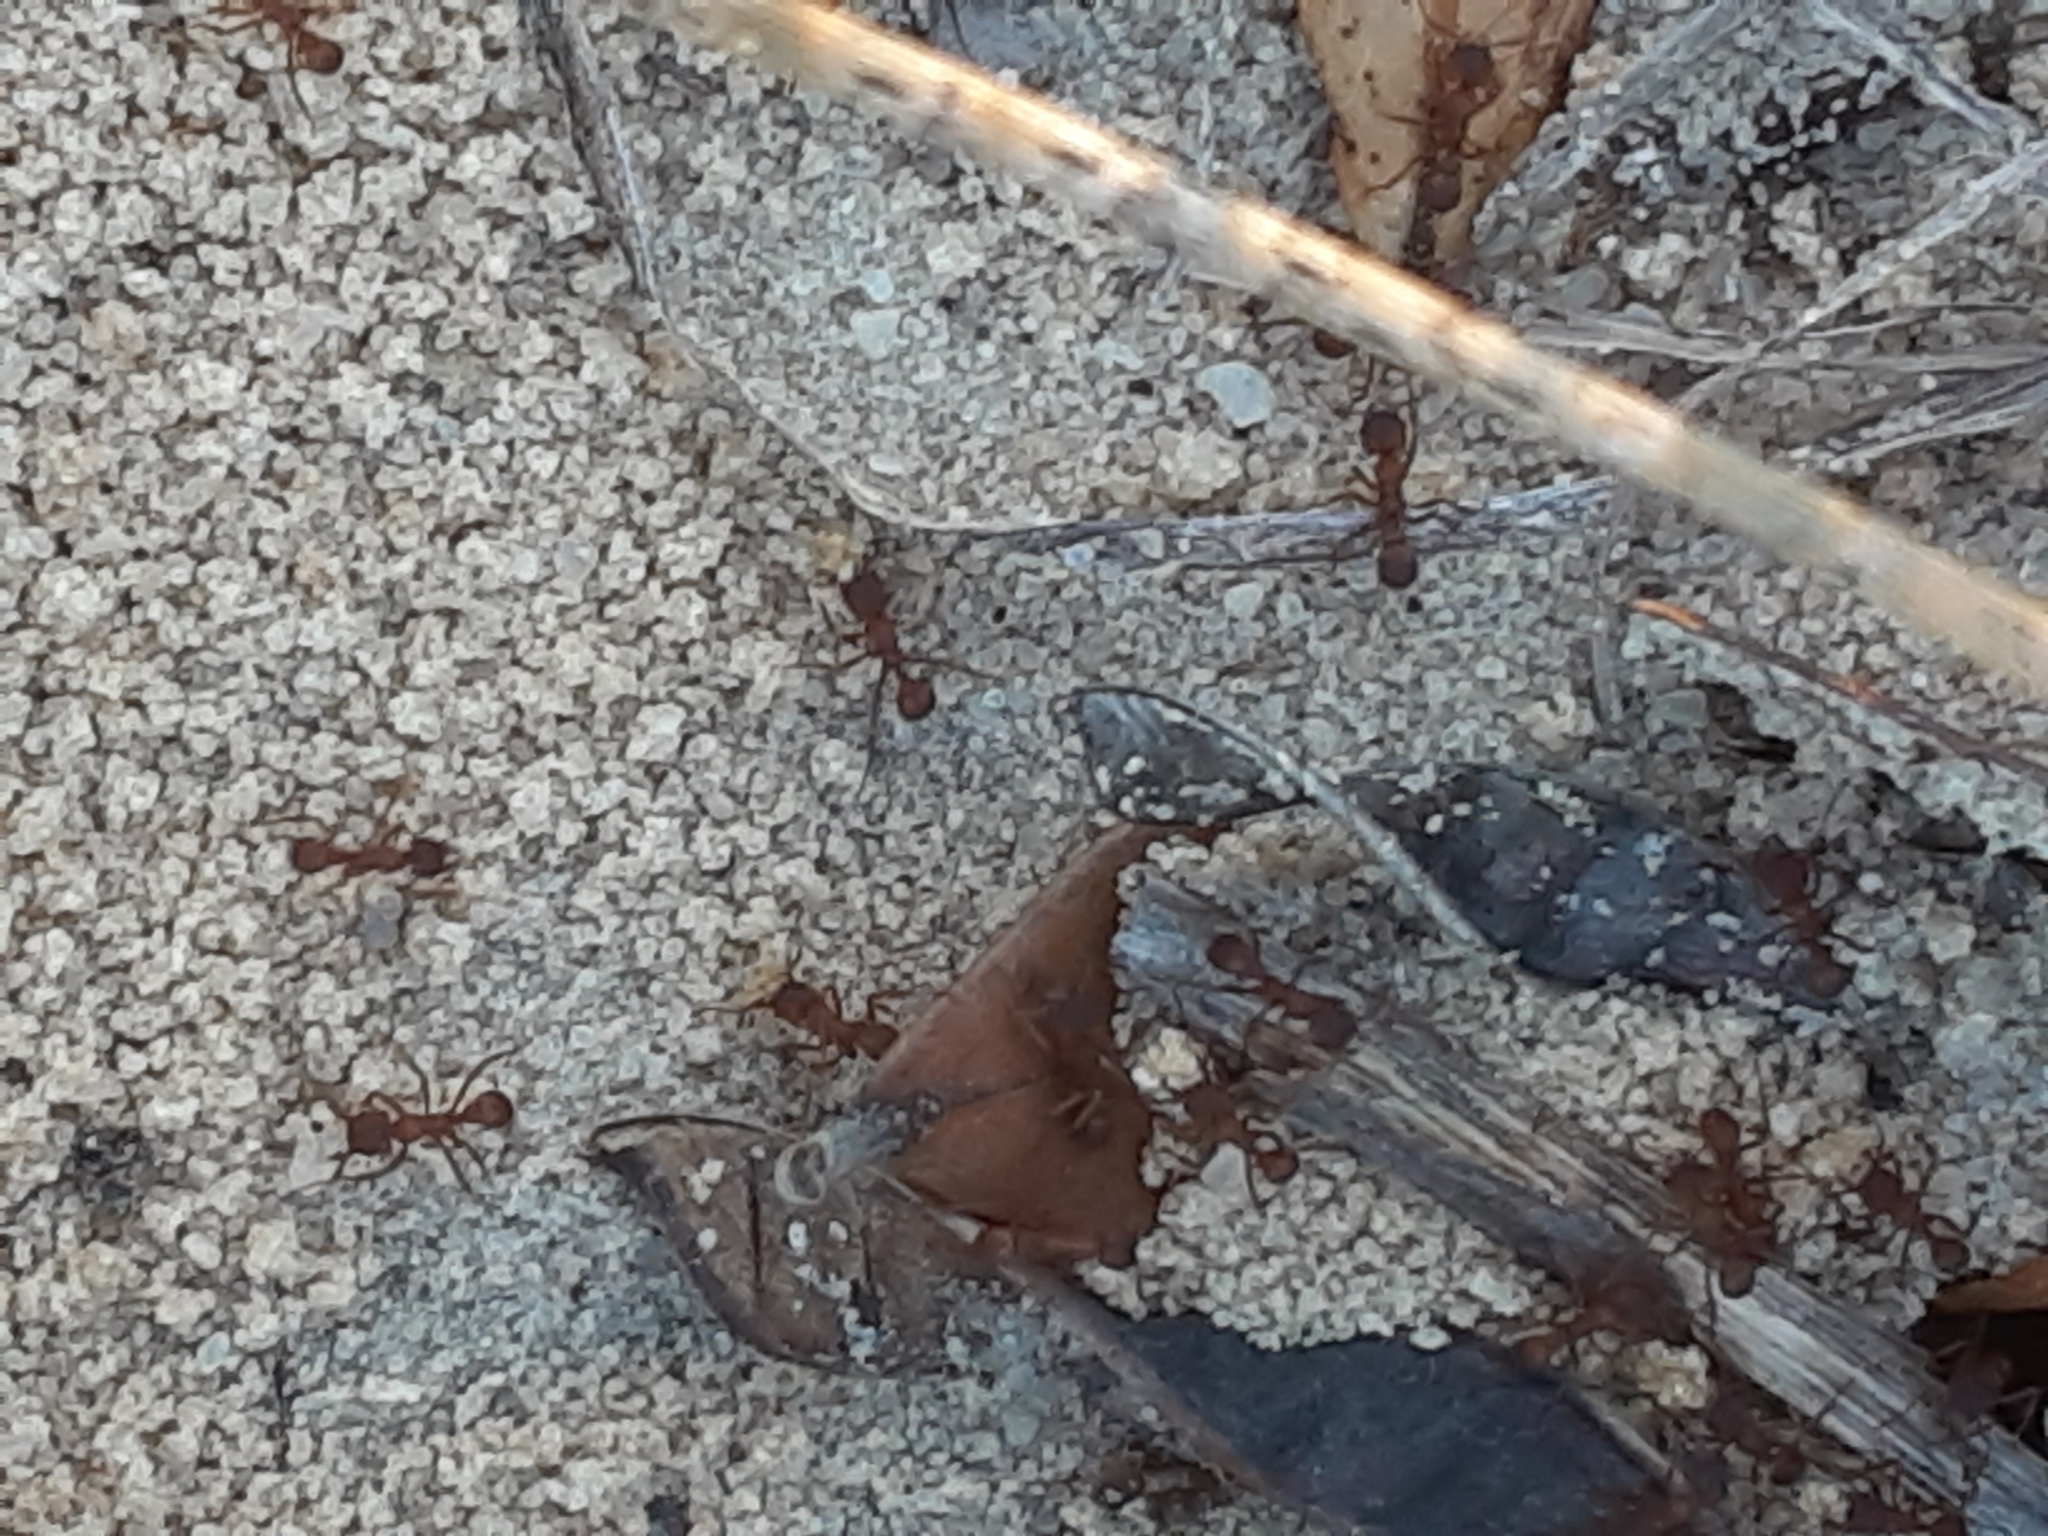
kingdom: Animalia
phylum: Arthropoda
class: Insecta
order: Hymenoptera
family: Formicidae
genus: Trachymyrmex
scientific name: Trachymyrmex septentrionalis
